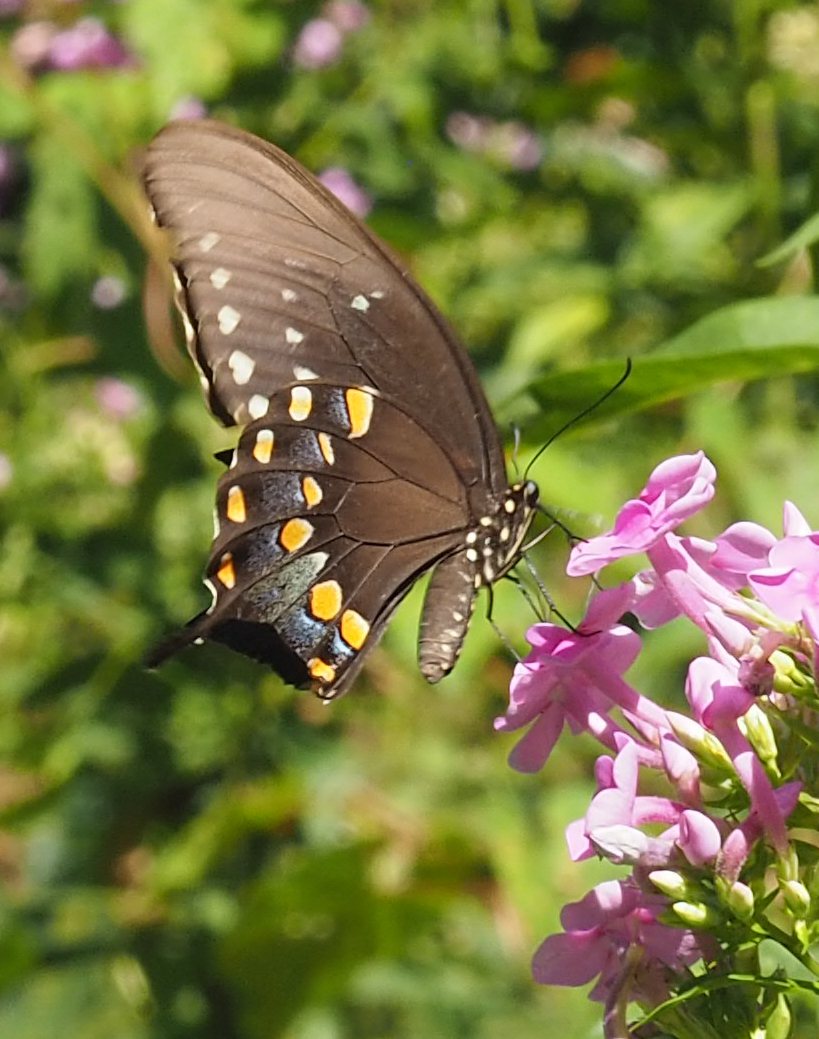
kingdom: Animalia
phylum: Arthropoda
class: Insecta
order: Lepidoptera
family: Papilionidae
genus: Papilio
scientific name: Papilio troilus
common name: Spicebush swallowtail
